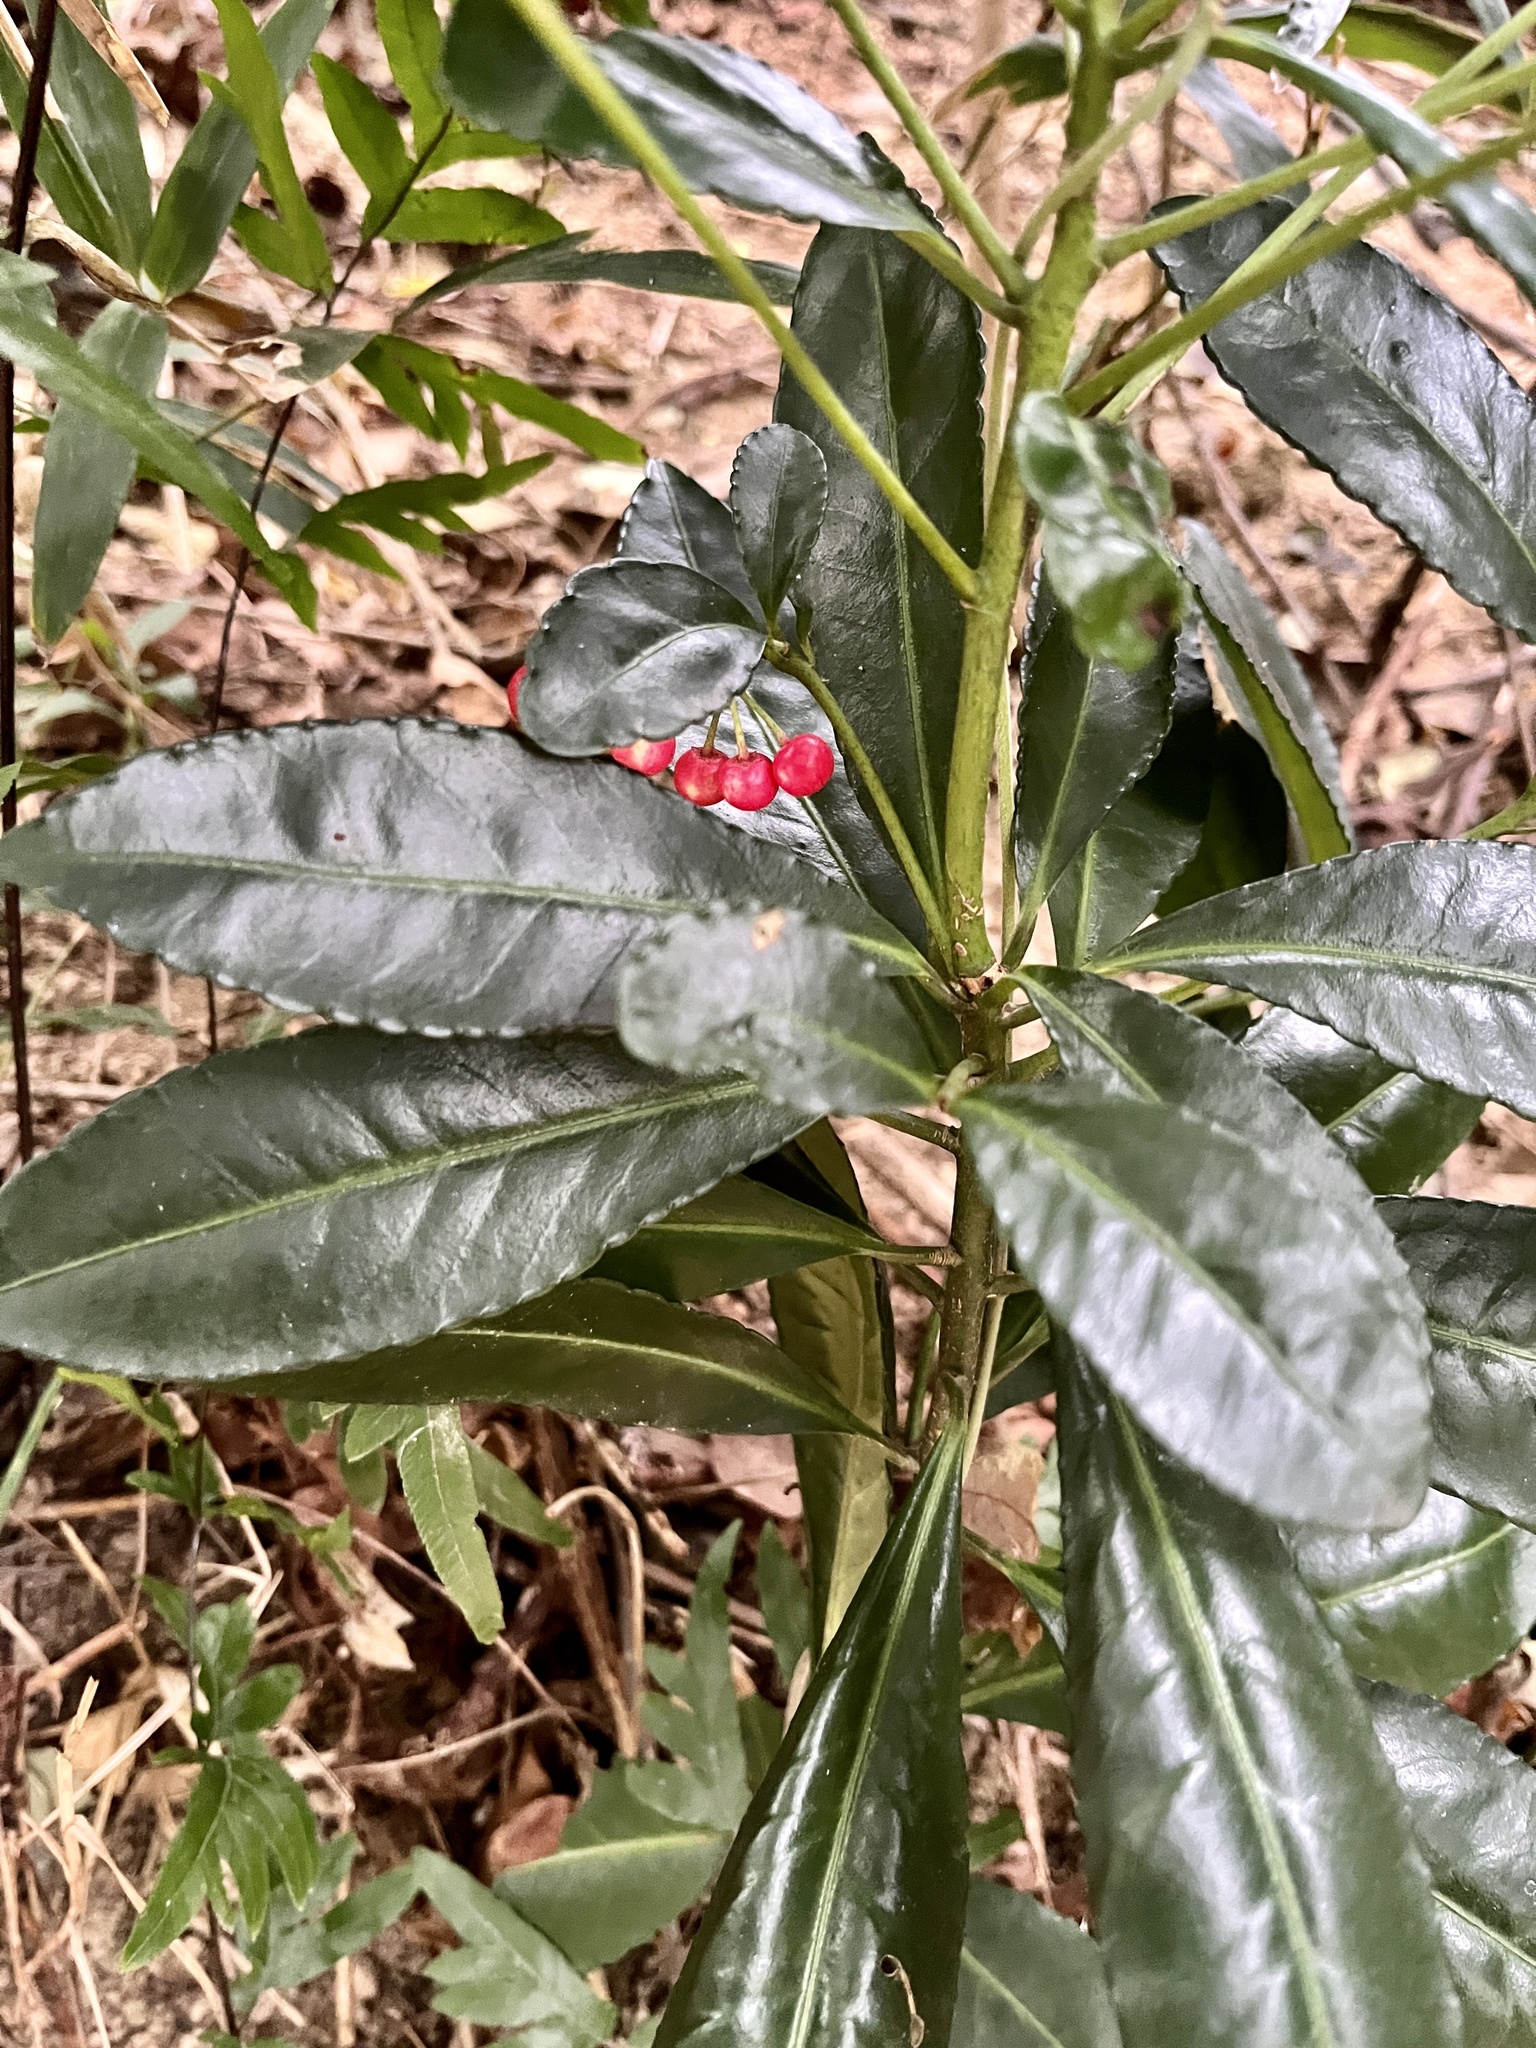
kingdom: Plantae
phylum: Tracheophyta
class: Magnoliopsida
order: Ericales
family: Primulaceae
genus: Ardisia
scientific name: Ardisia crenata
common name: Hen's eyes
